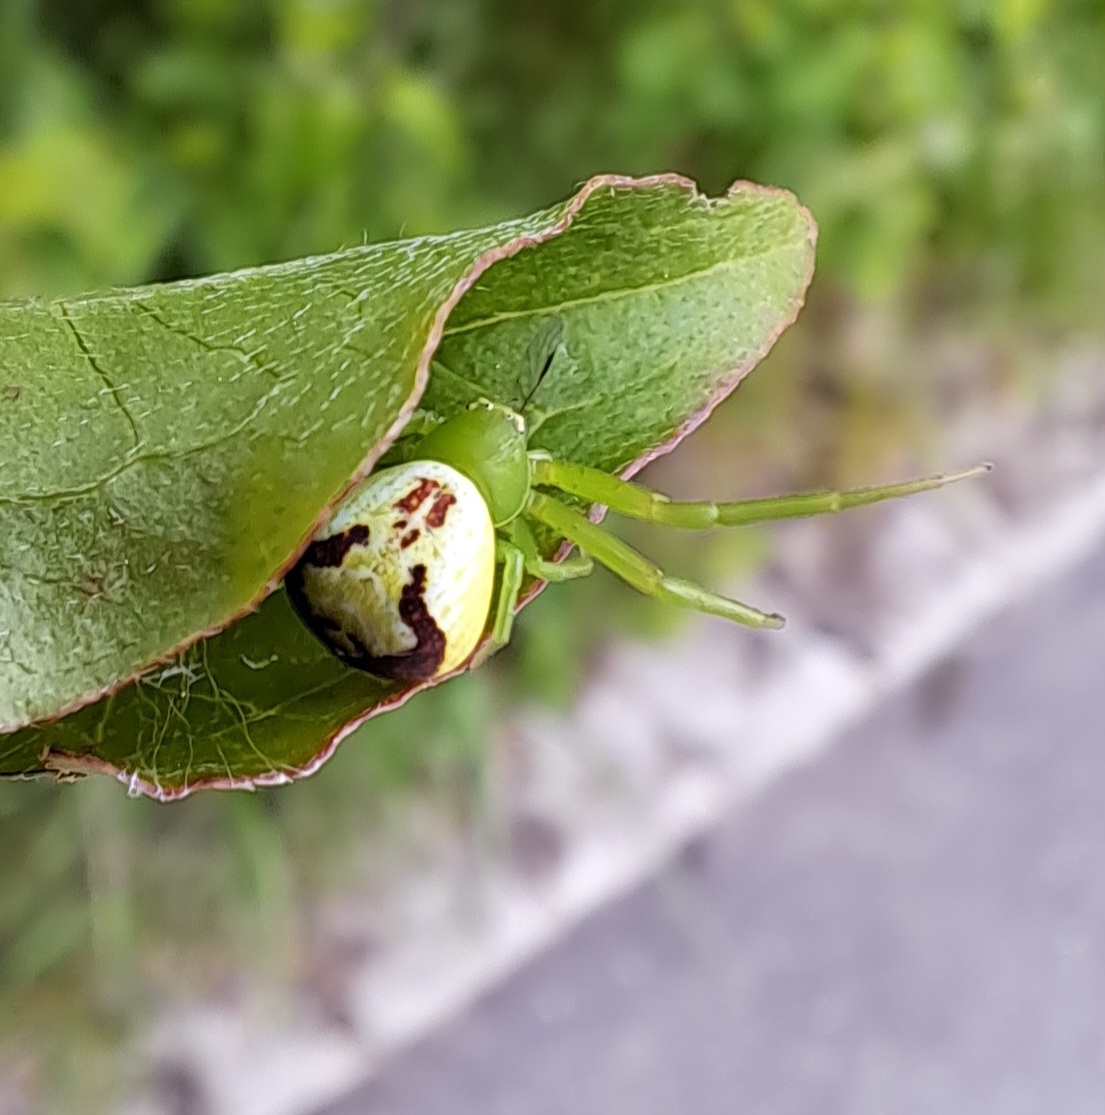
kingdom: Animalia
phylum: Arthropoda
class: Arachnida
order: Araneae
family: Thomisidae
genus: Ebrechtella
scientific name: Ebrechtella tricuspidata
